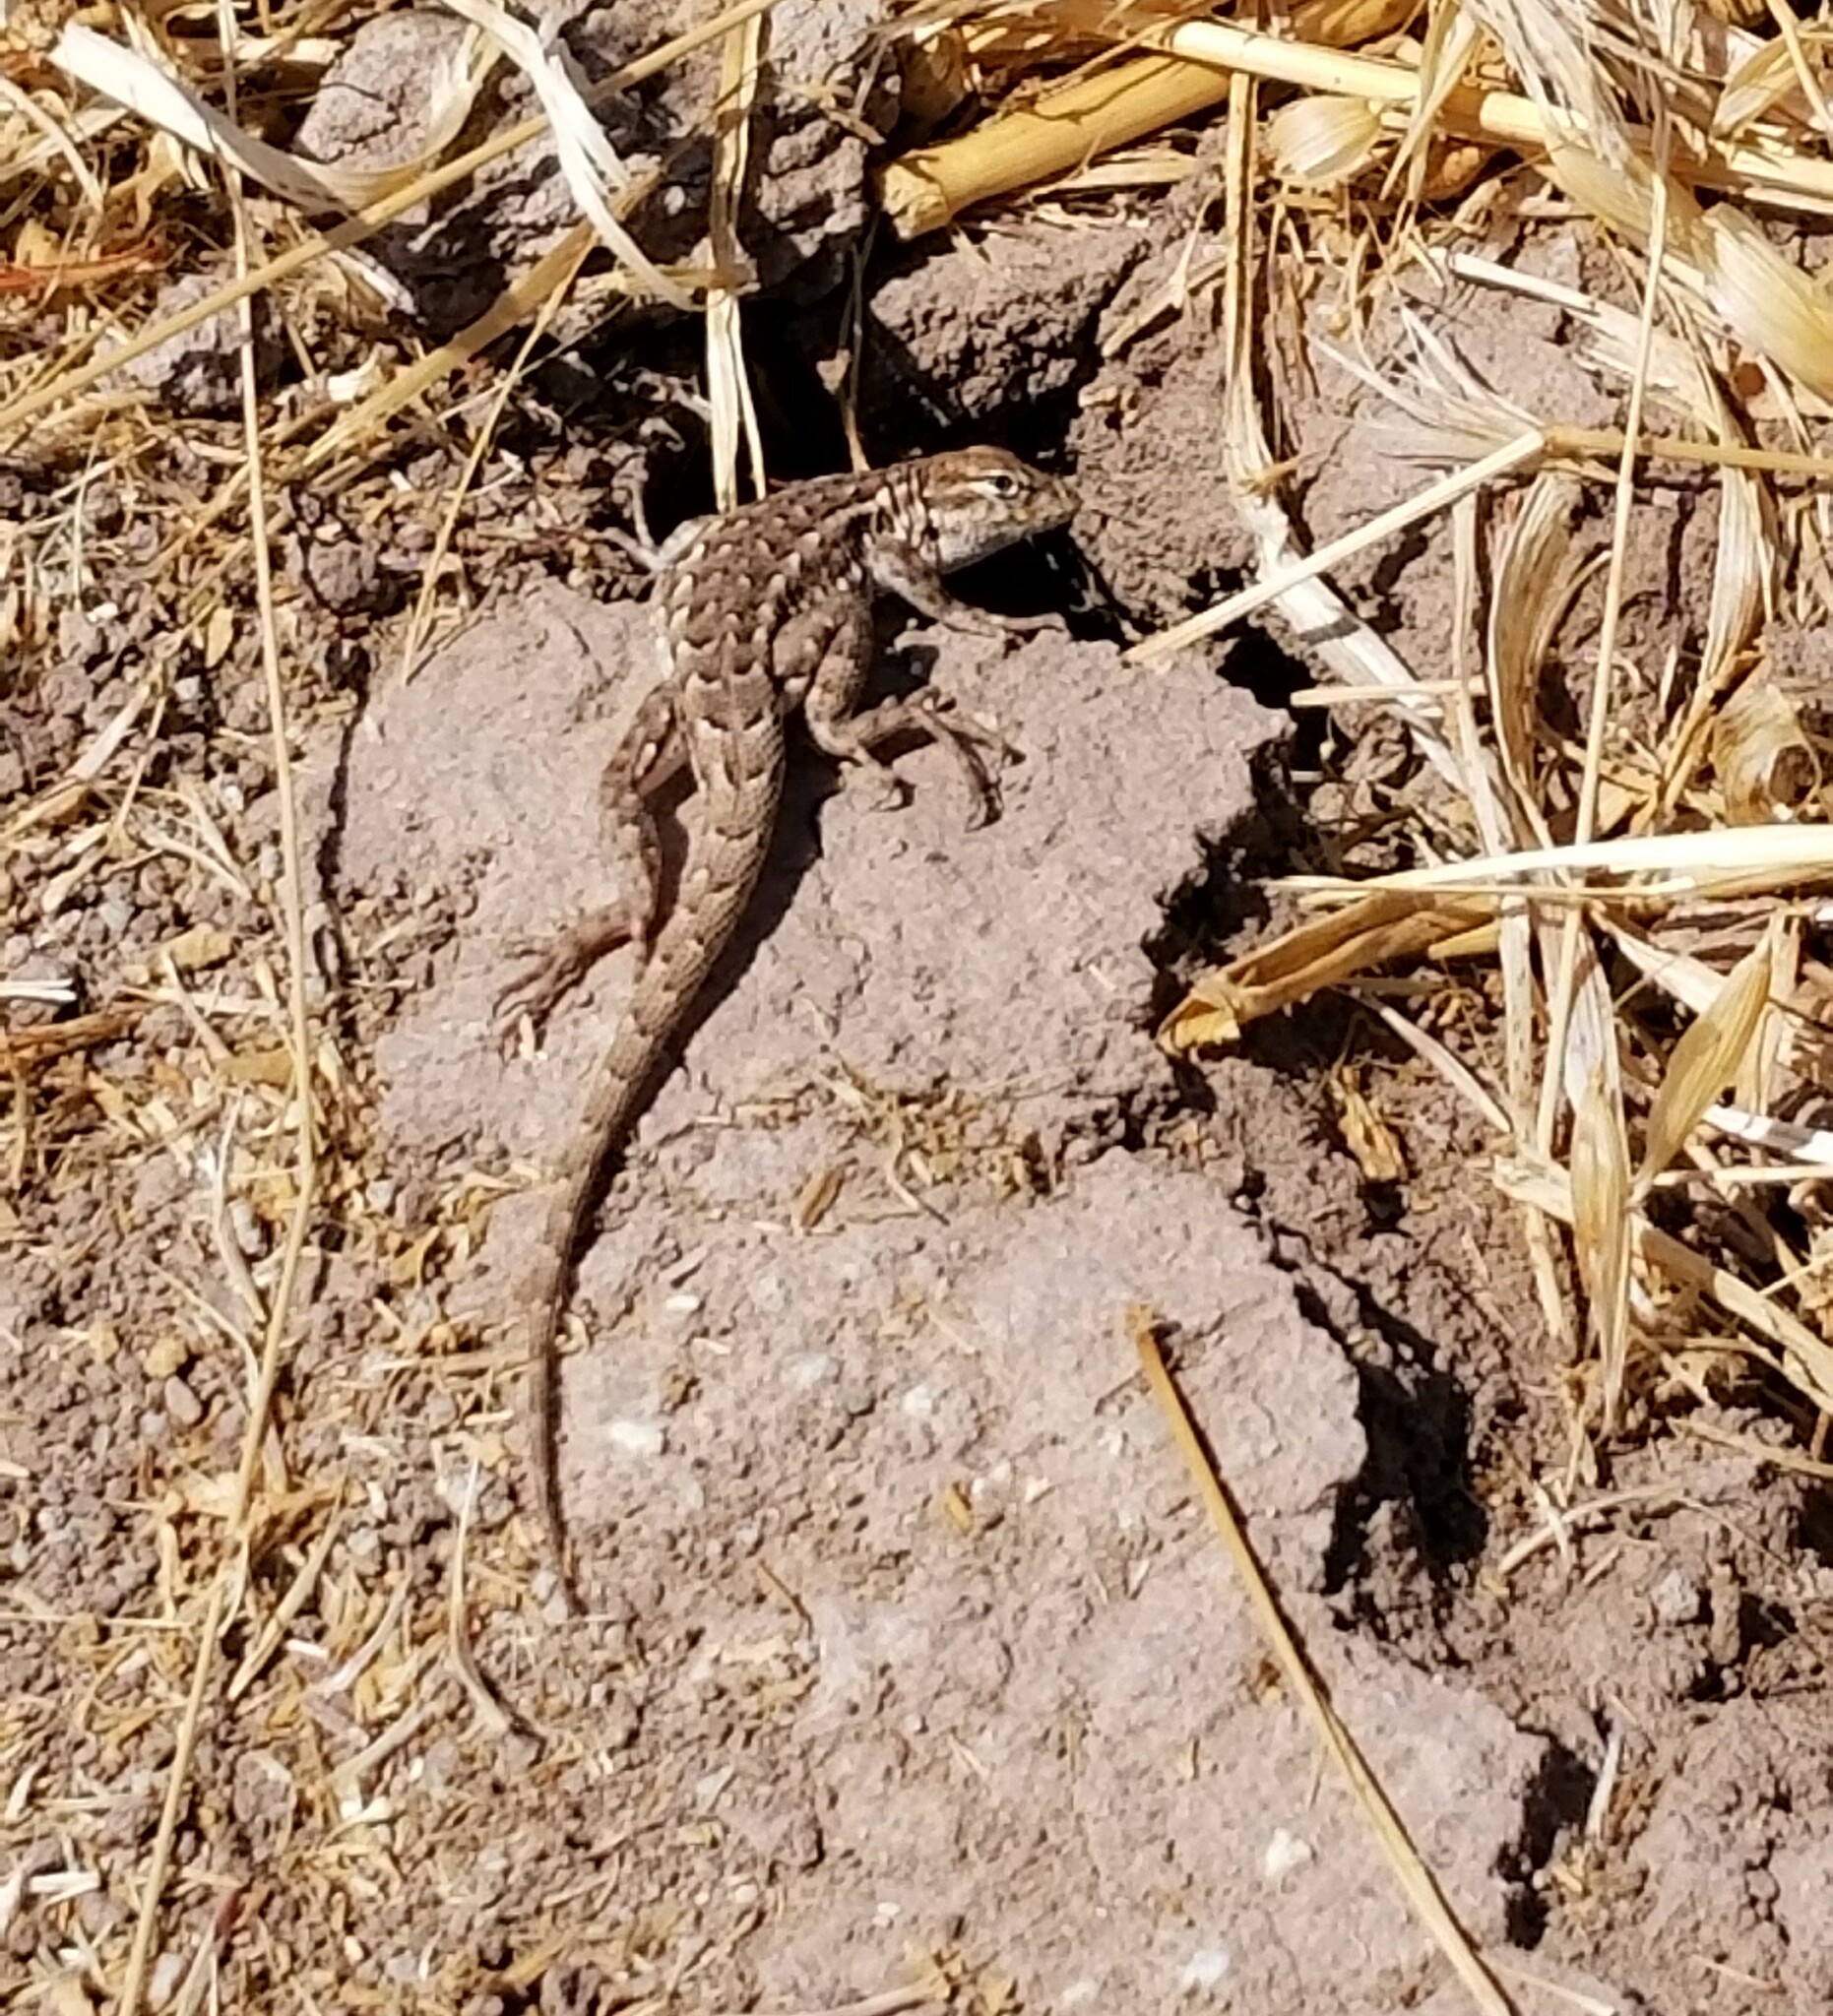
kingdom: Animalia
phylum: Chordata
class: Squamata
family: Phrynosomatidae
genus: Uta
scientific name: Uta stansburiana
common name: Side-blotched lizard
